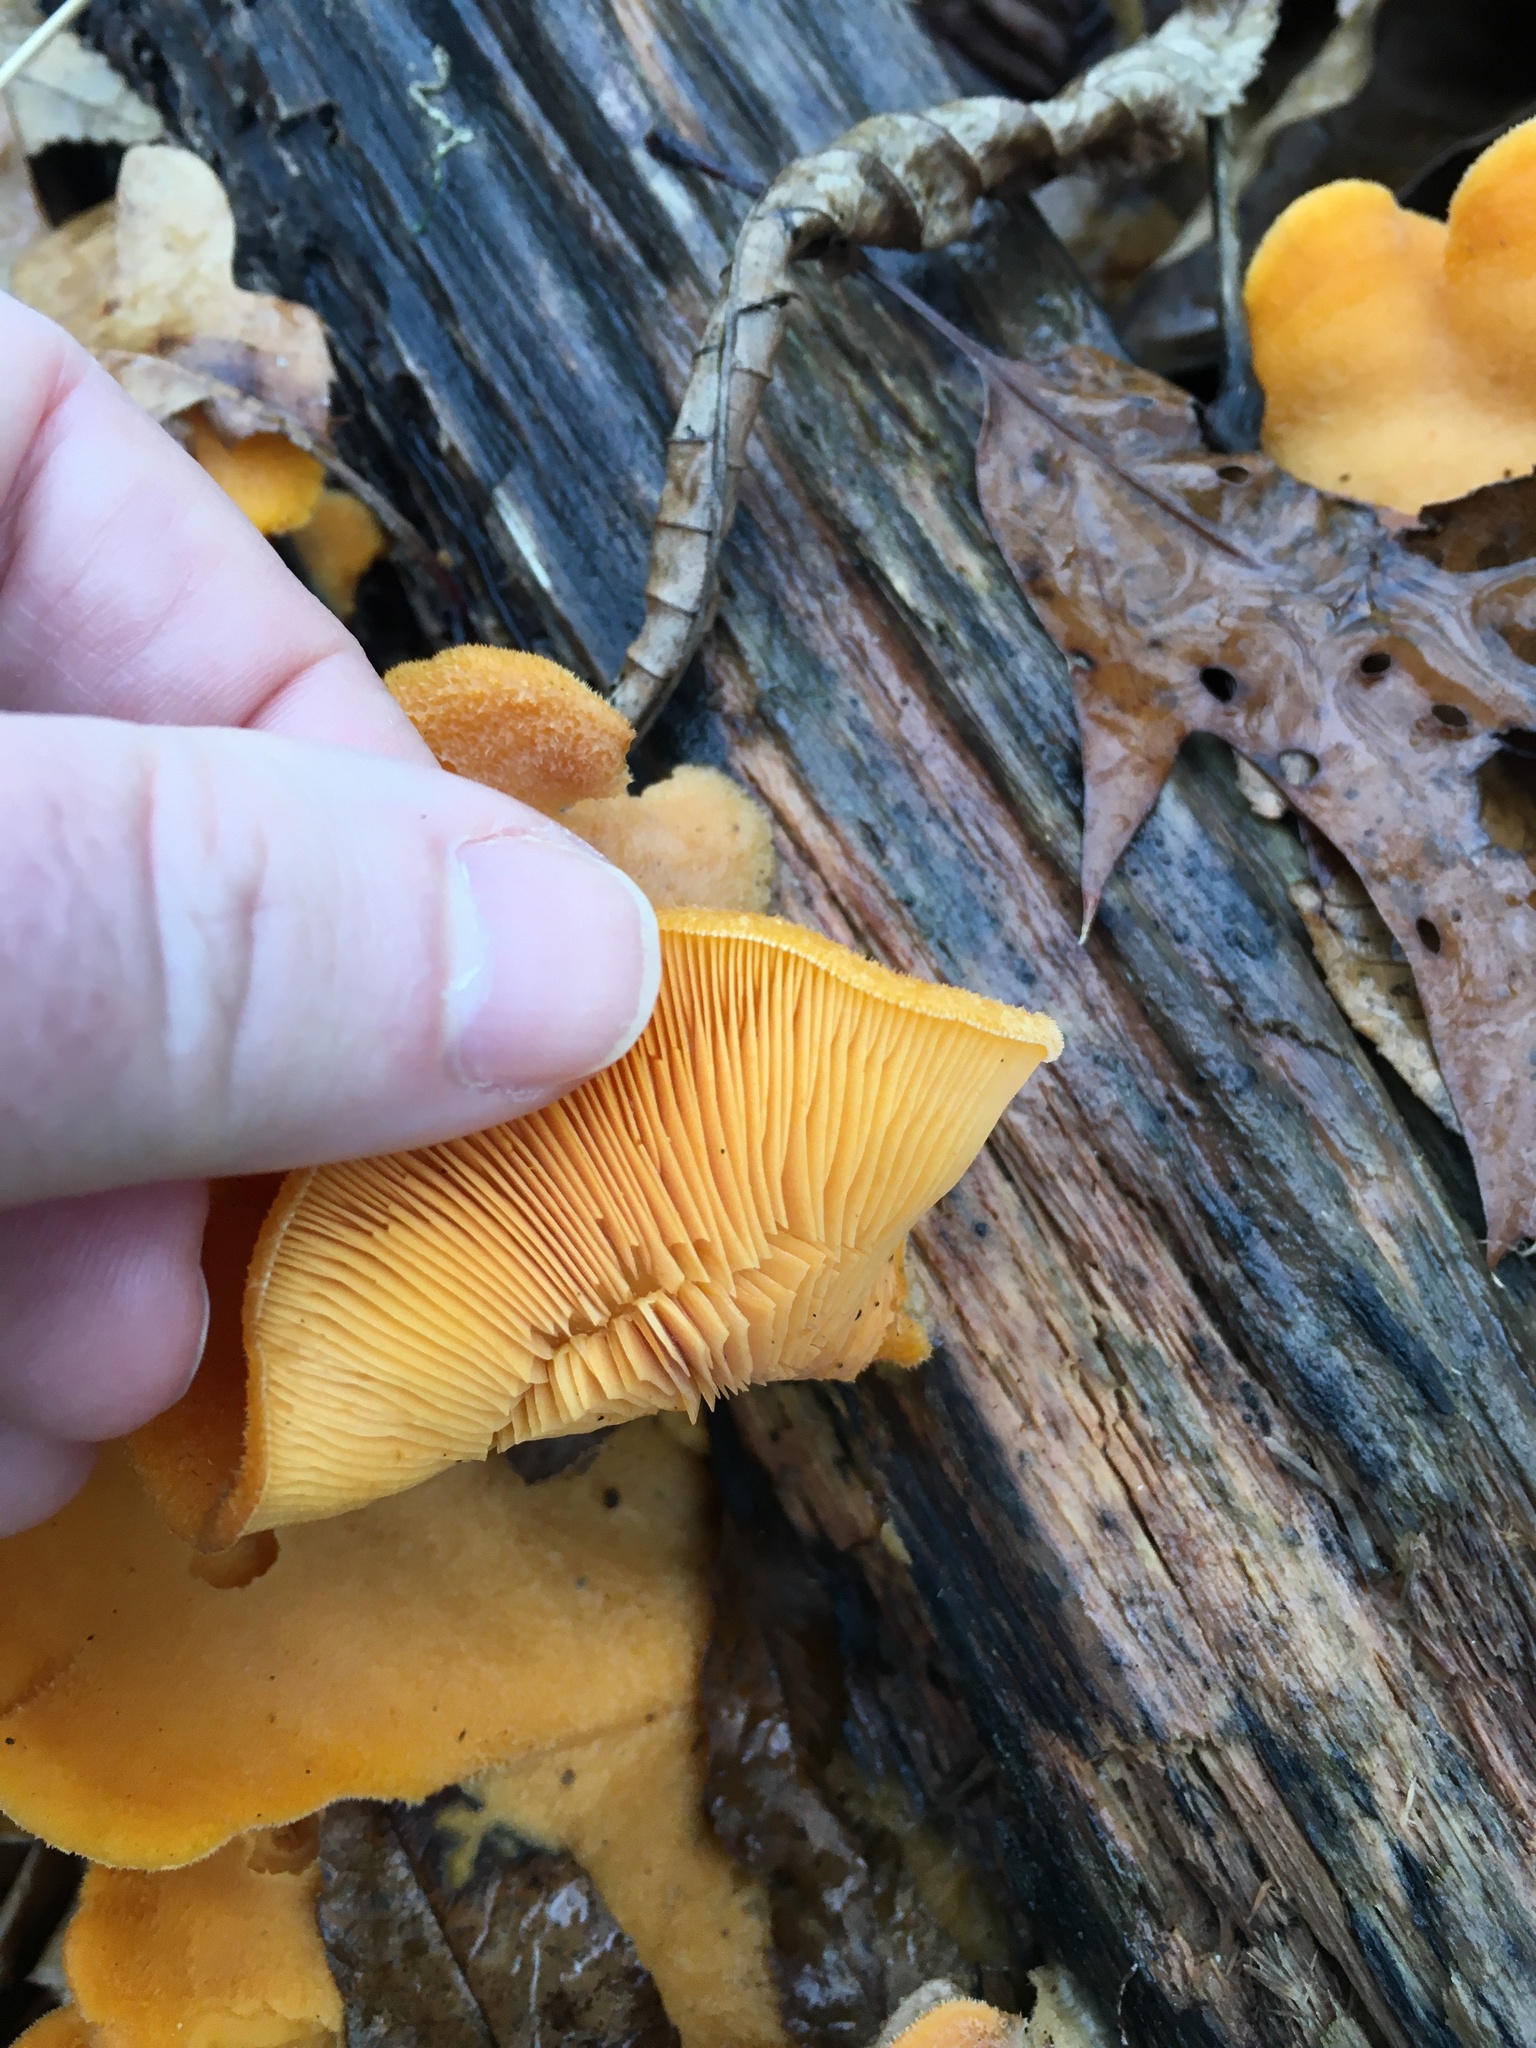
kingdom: Fungi
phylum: Basidiomycota
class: Agaricomycetes
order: Agaricales
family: Phyllotopsidaceae
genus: Phyllotopsis
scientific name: Phyllotopsis nidulans
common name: Orange mock oyster
